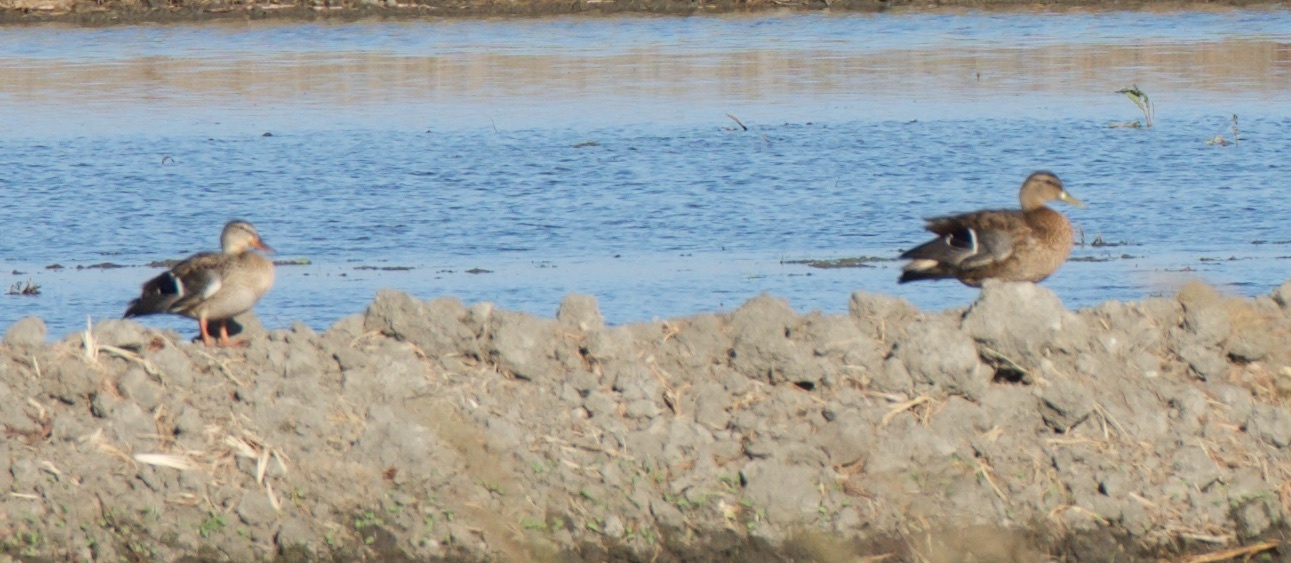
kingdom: Animalia
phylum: Chordata
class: Aves
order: Anseriformes
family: Anatidae
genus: Anas
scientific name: Anas platyrhynchos
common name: Mallard
